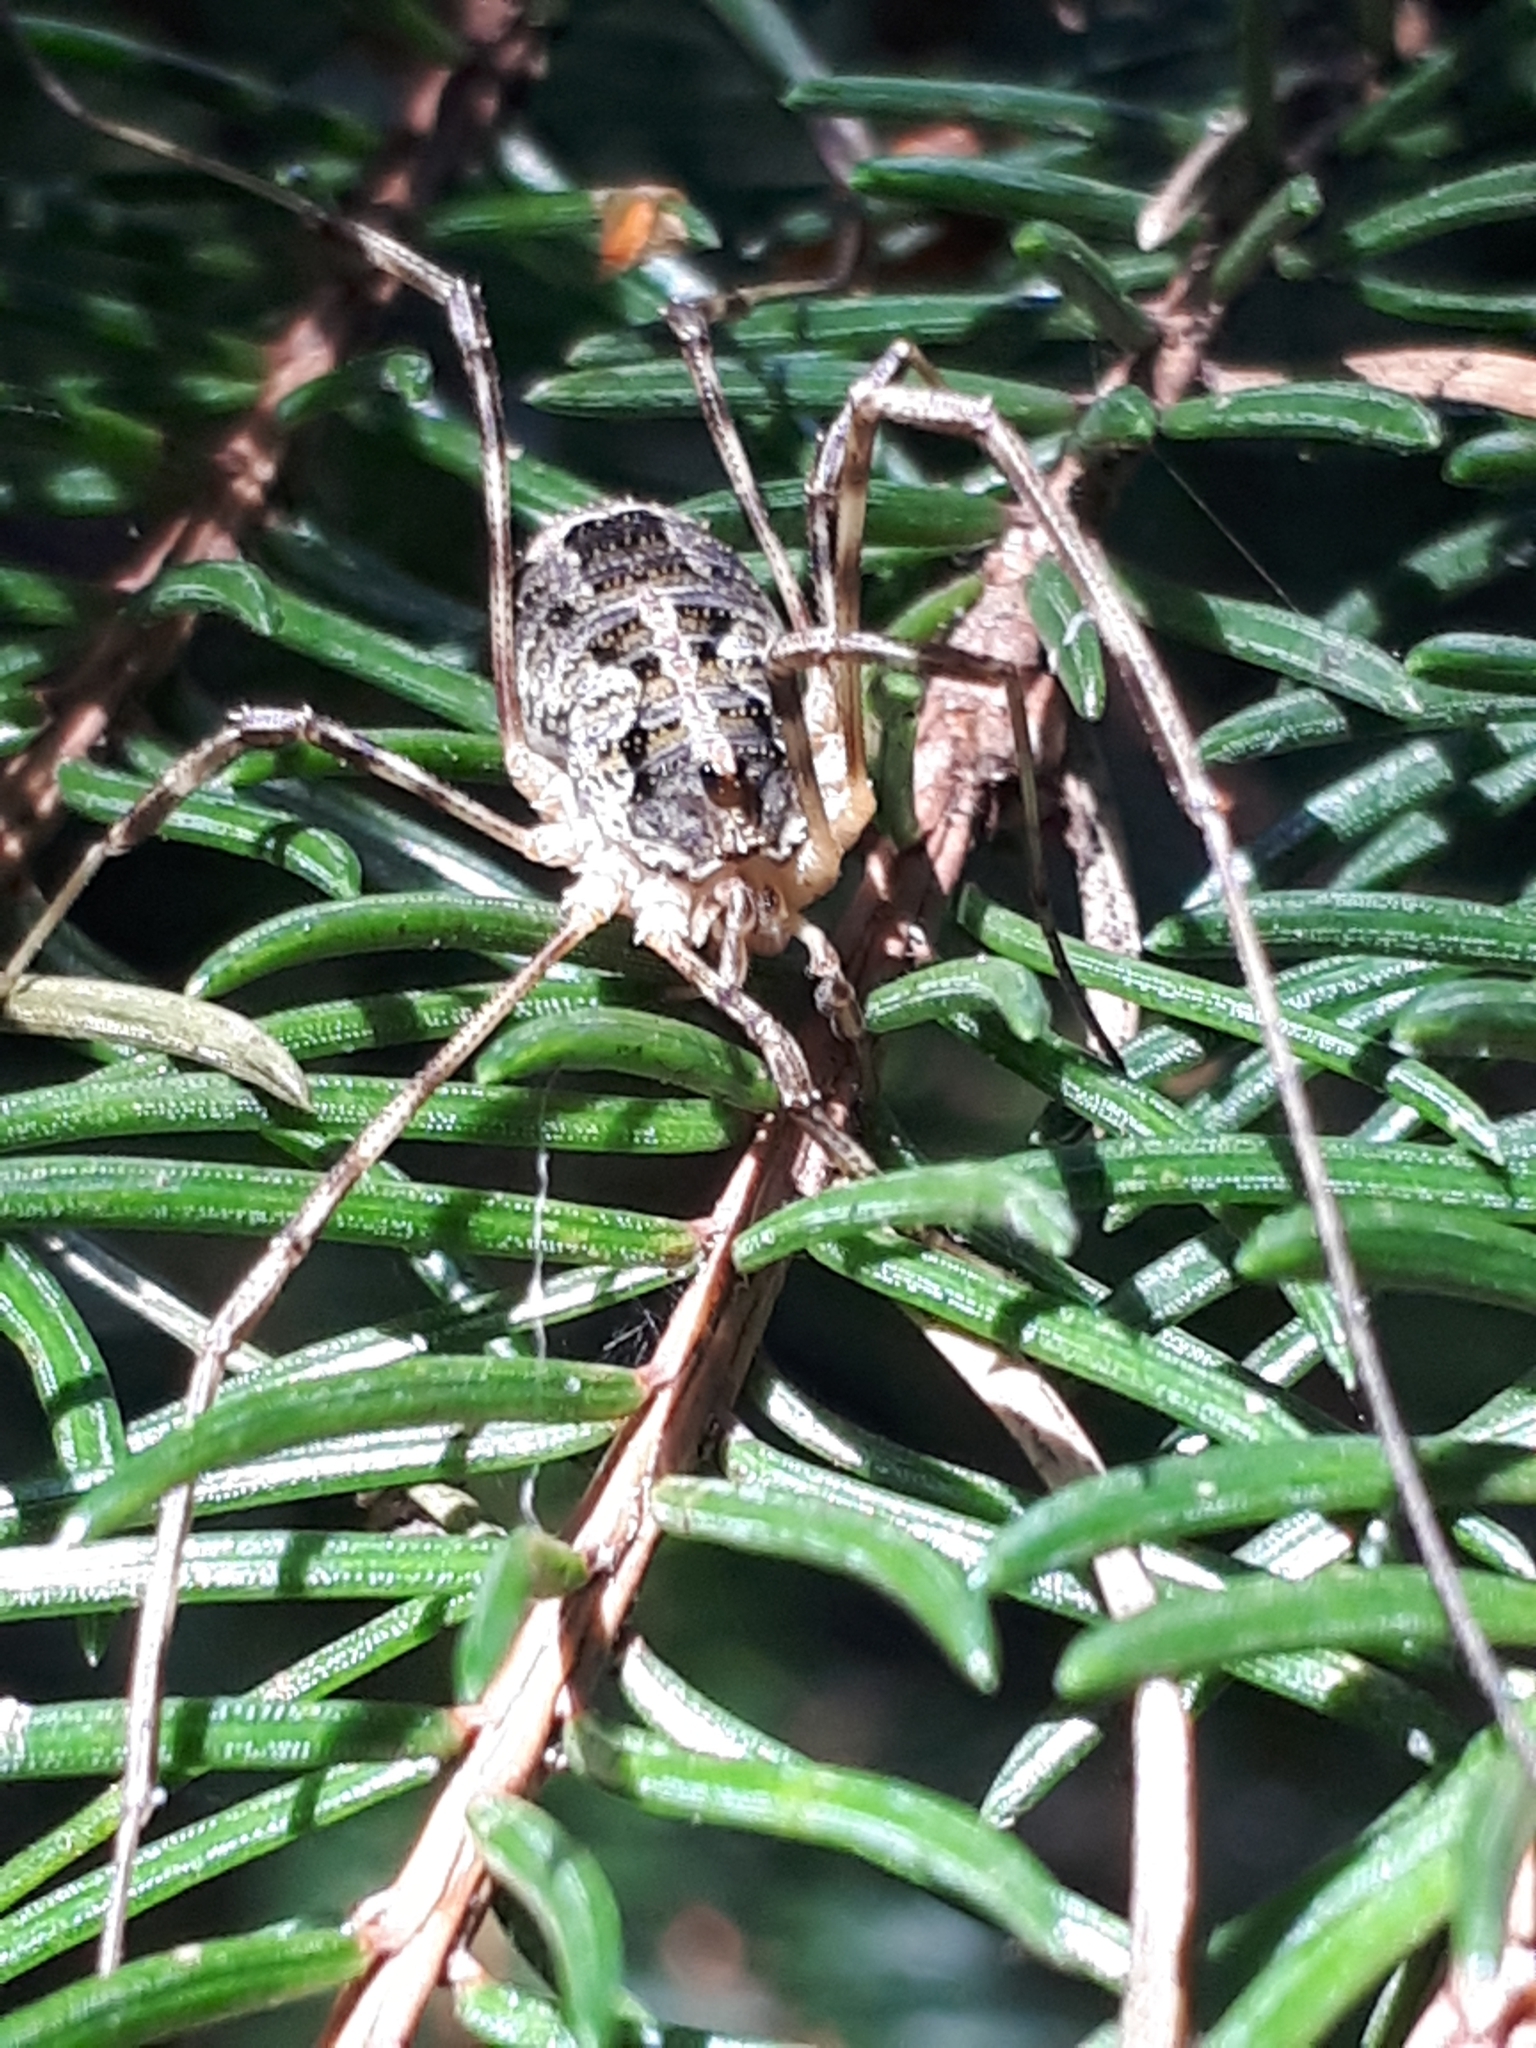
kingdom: Animalia
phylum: Arthropoda
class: Arachnida
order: Opiliones
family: Phalangiidae
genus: Lacinius
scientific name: Lacinius dentiger
